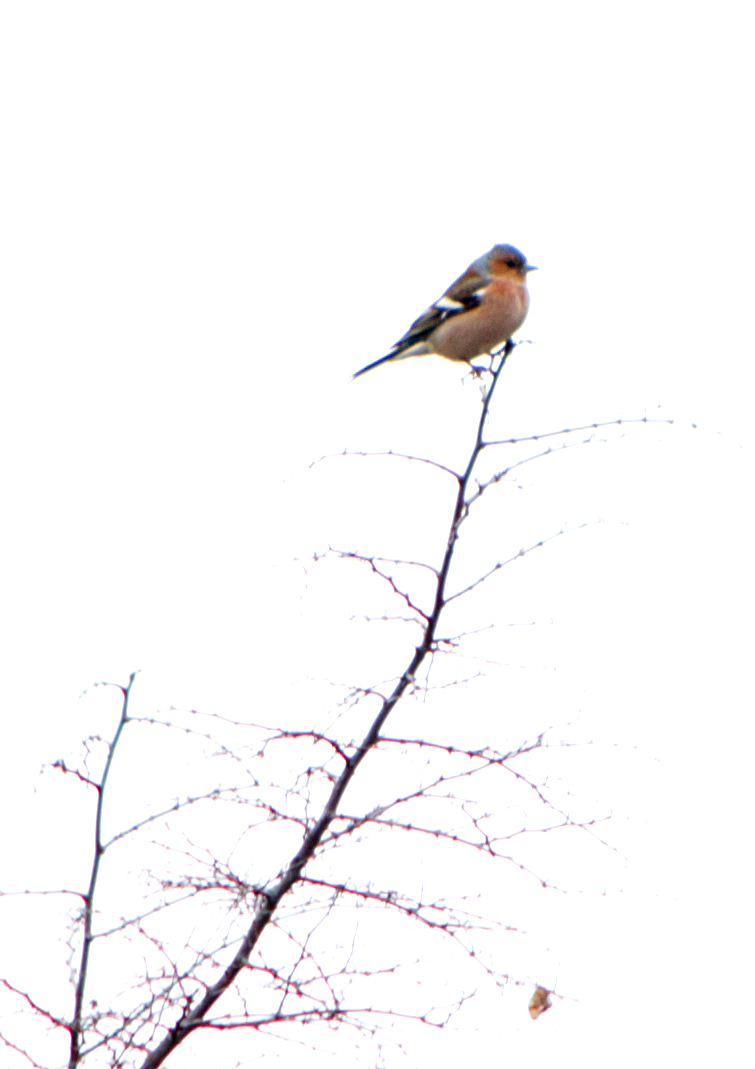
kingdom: Animalia
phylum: Chordata
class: Aves
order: Passeriformes
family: Fringillidae
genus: Fringilla
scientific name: Fringilla coelebs
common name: Common chaffinch
